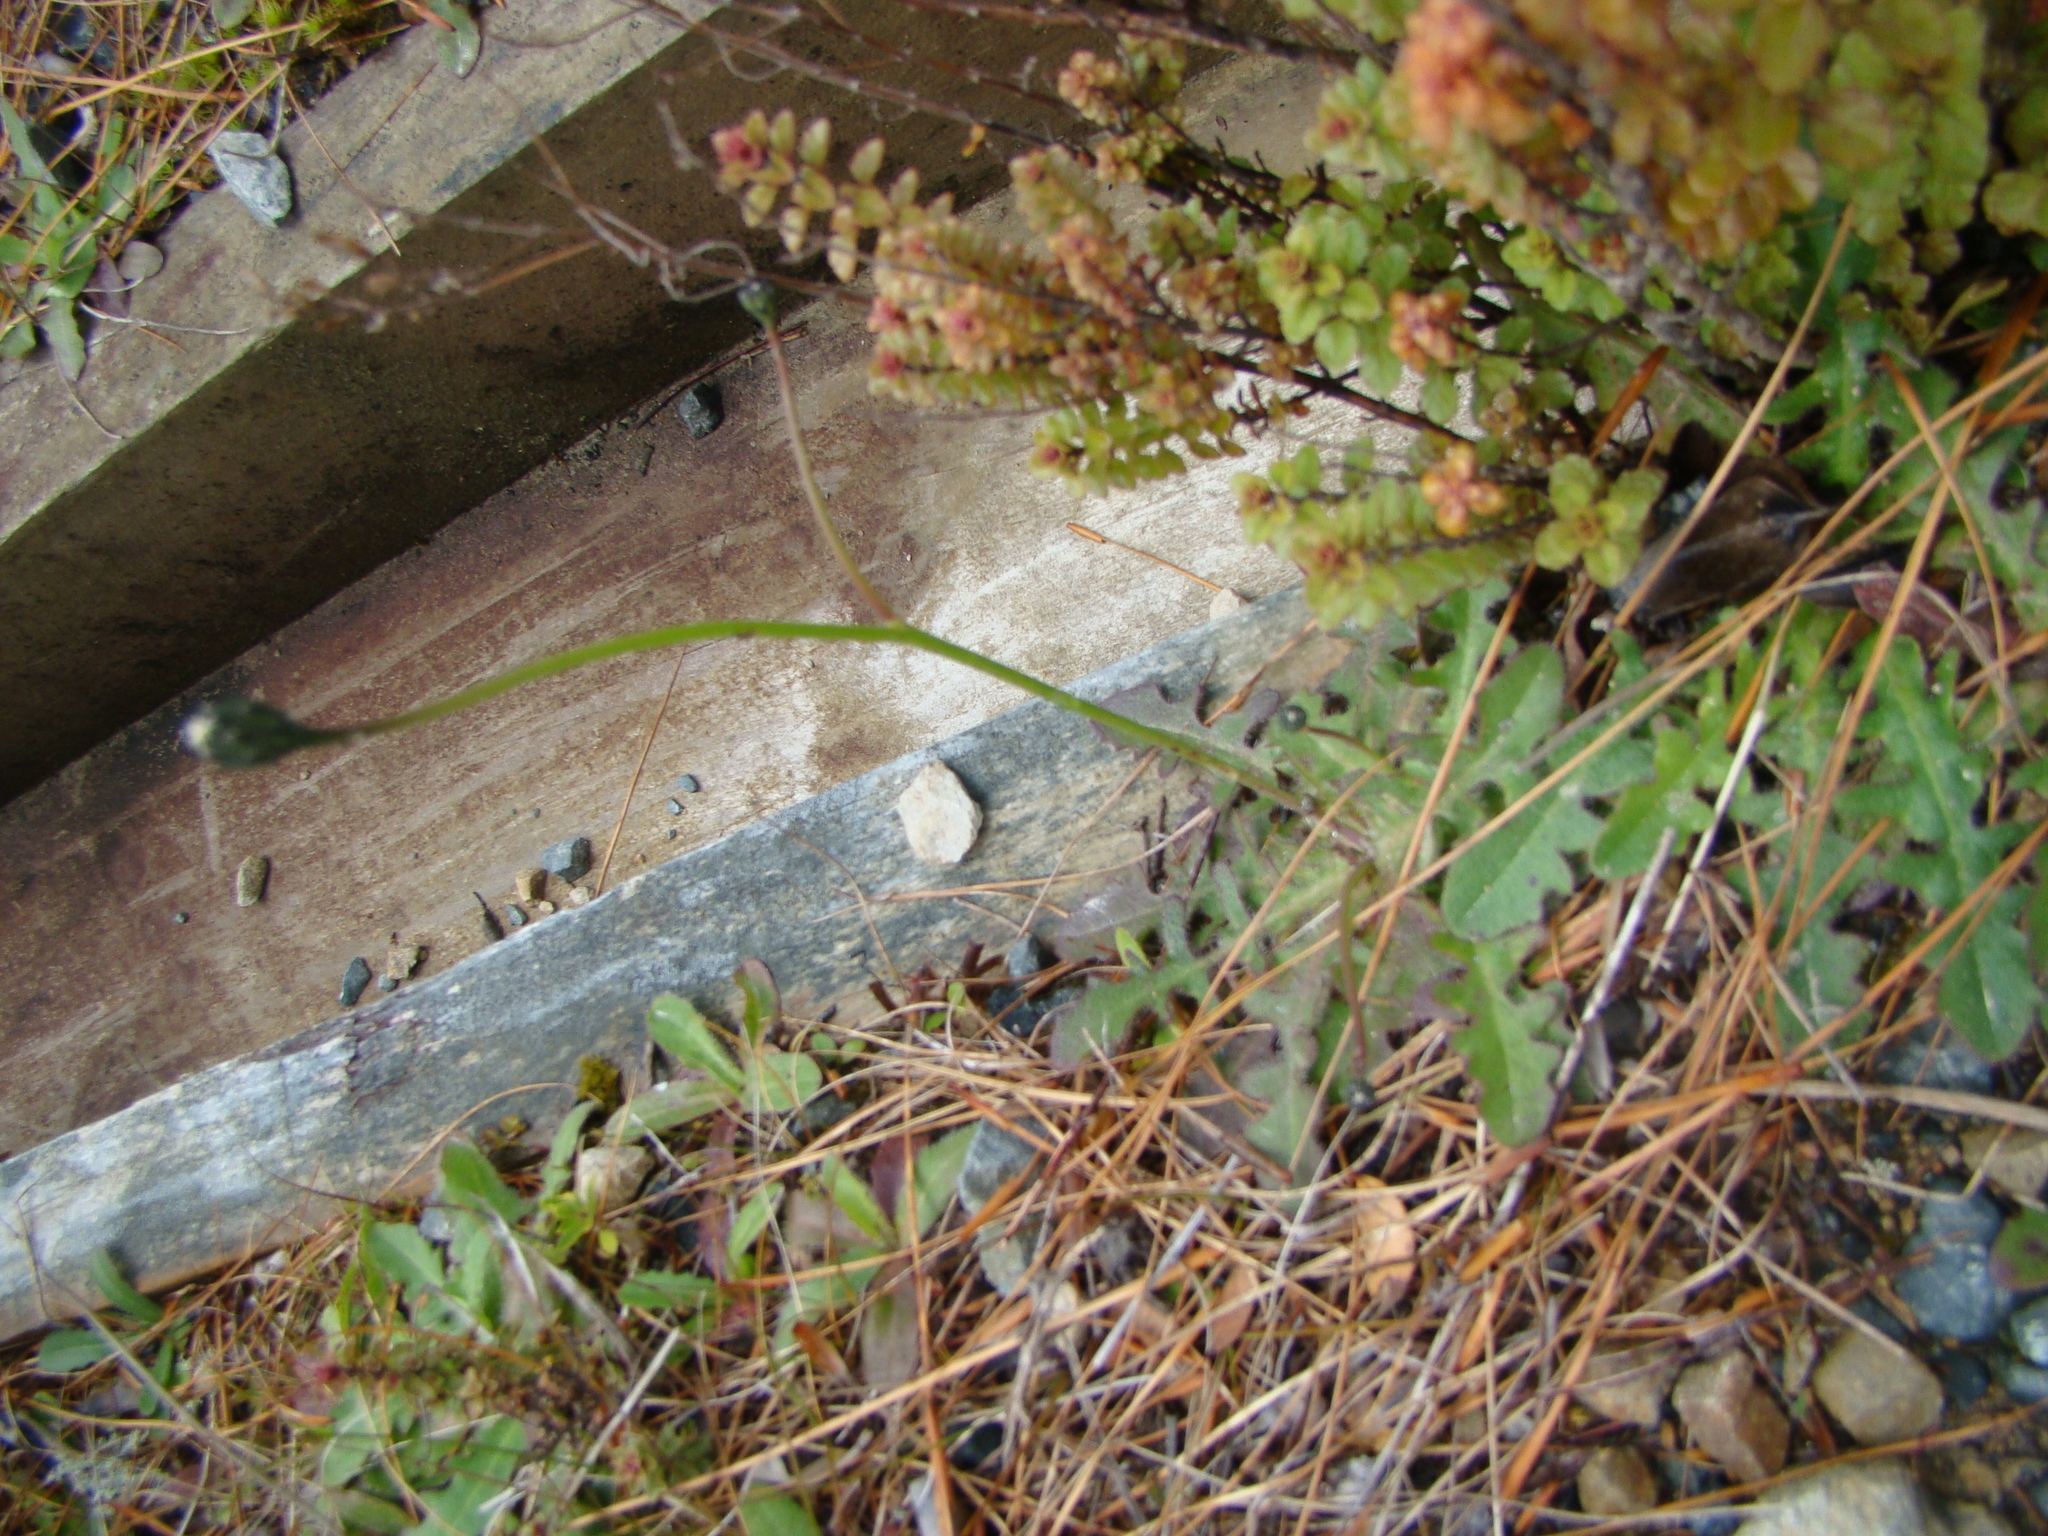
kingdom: Plantae
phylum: Tracheophyta
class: Magnoliopsida
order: Asterales
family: Asteraceae
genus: Hypochaeris
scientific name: Hypochaeris radicata
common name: Flatweed
